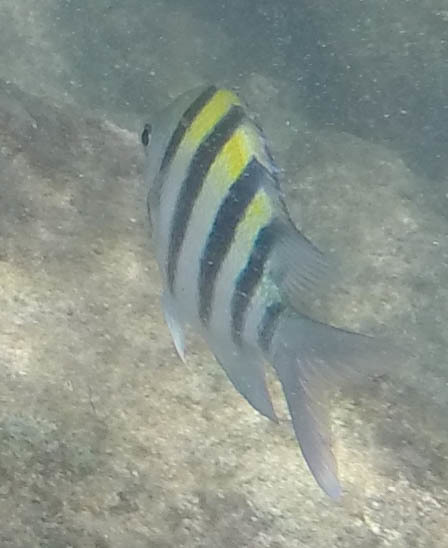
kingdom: Animalia
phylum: Chordata
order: Perciformes
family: Pomacentridae
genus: Abudefduf
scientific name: Abudefduf vaigiensis
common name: Indo-pacific sergeant
